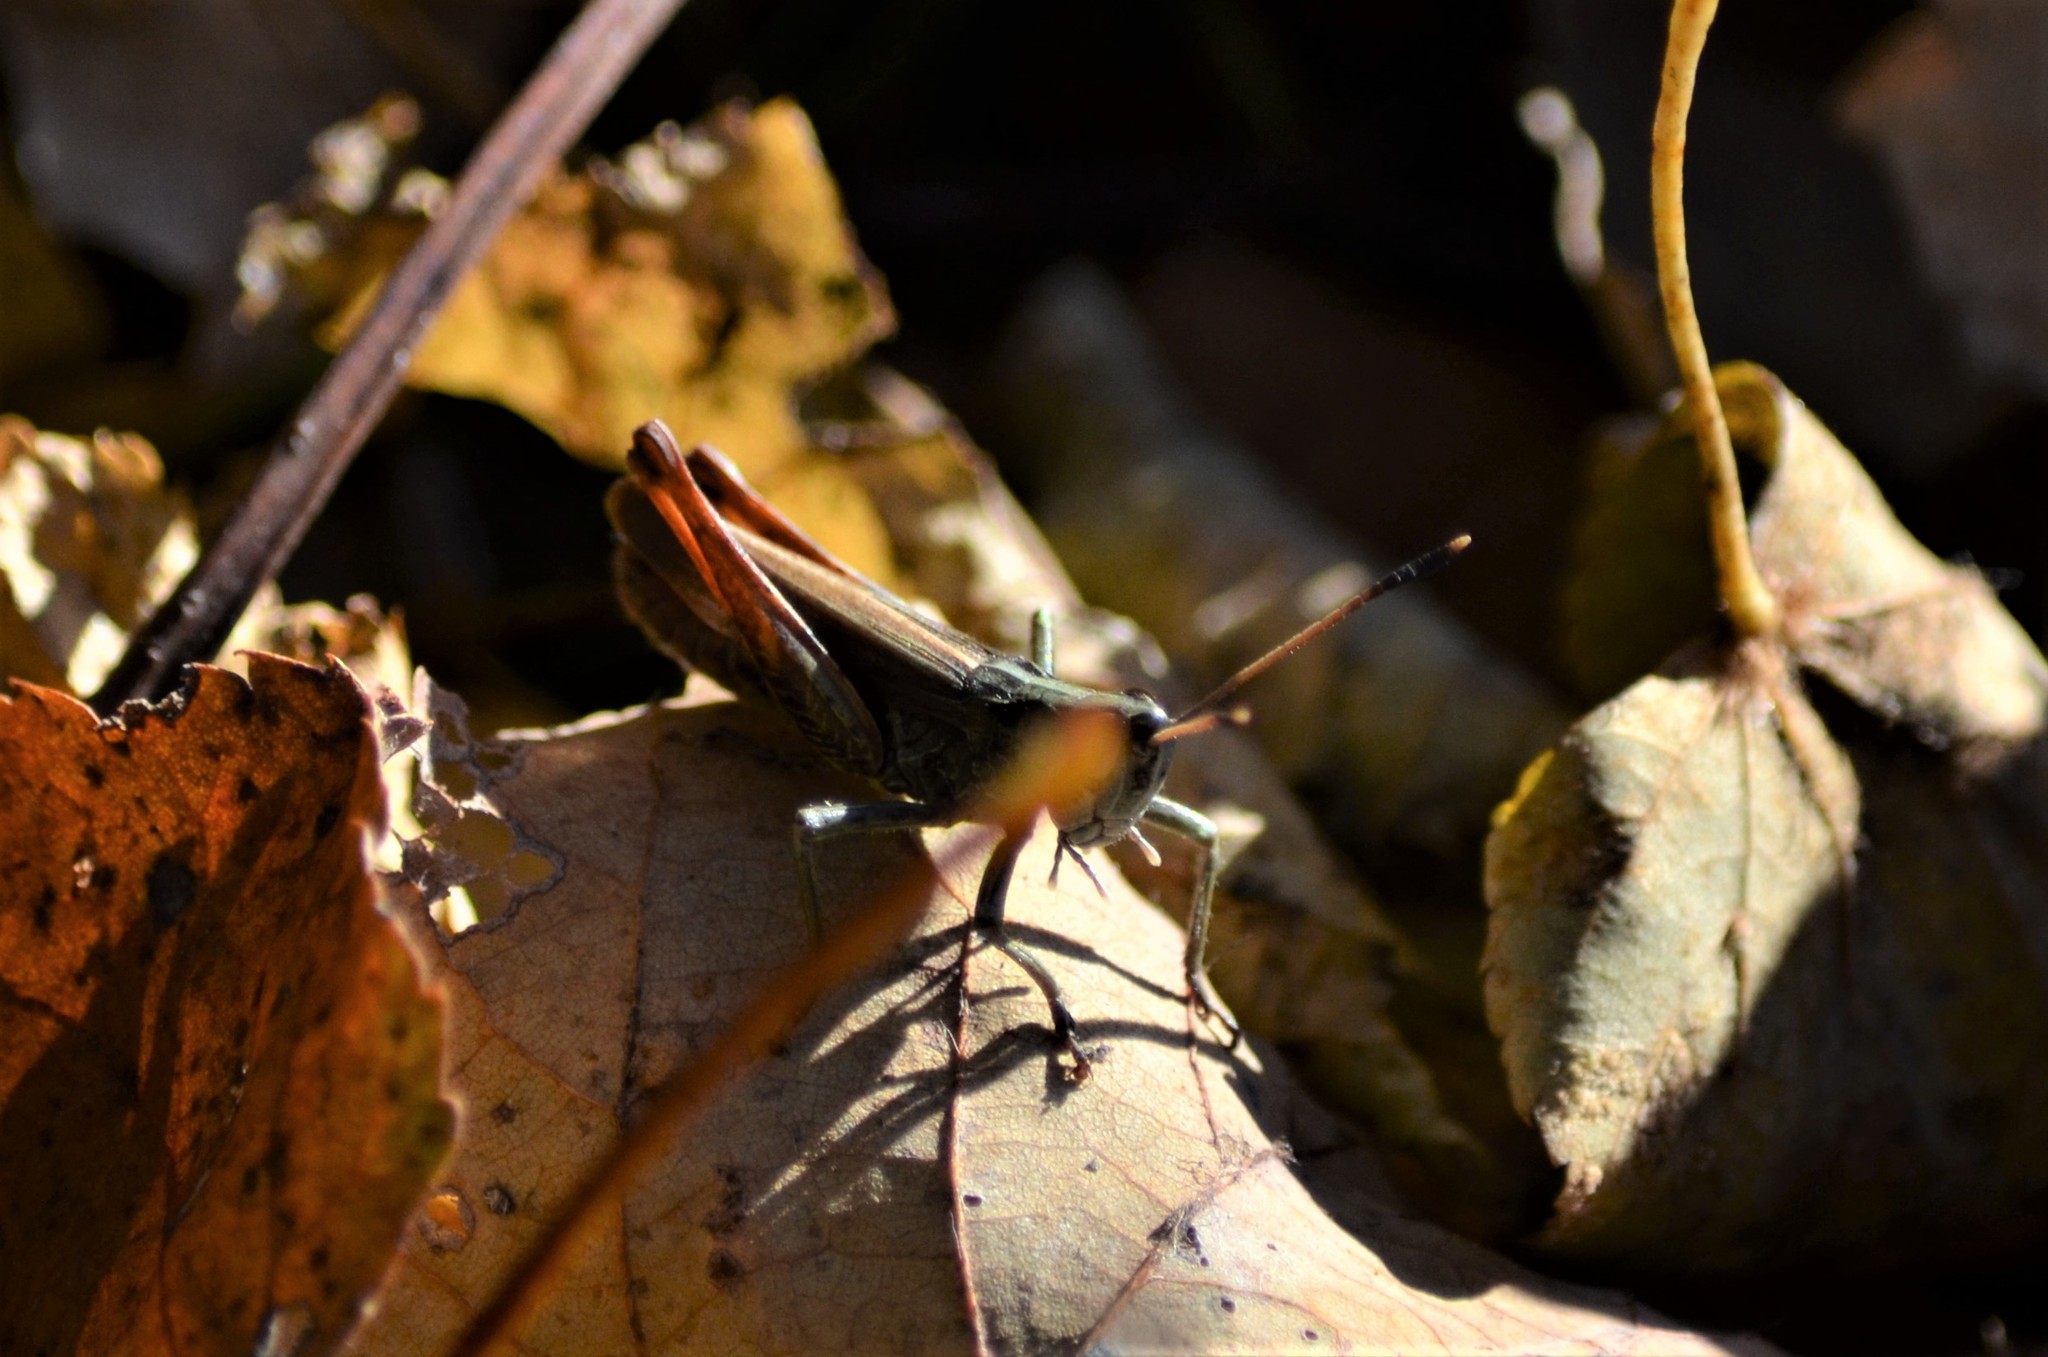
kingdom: Animalia
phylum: Arthropoda
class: Insecta
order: Orthoptera
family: Acrididae
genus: Gomphocerippus
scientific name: Gomphocerippus rufus
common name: Rufous grasshopper
